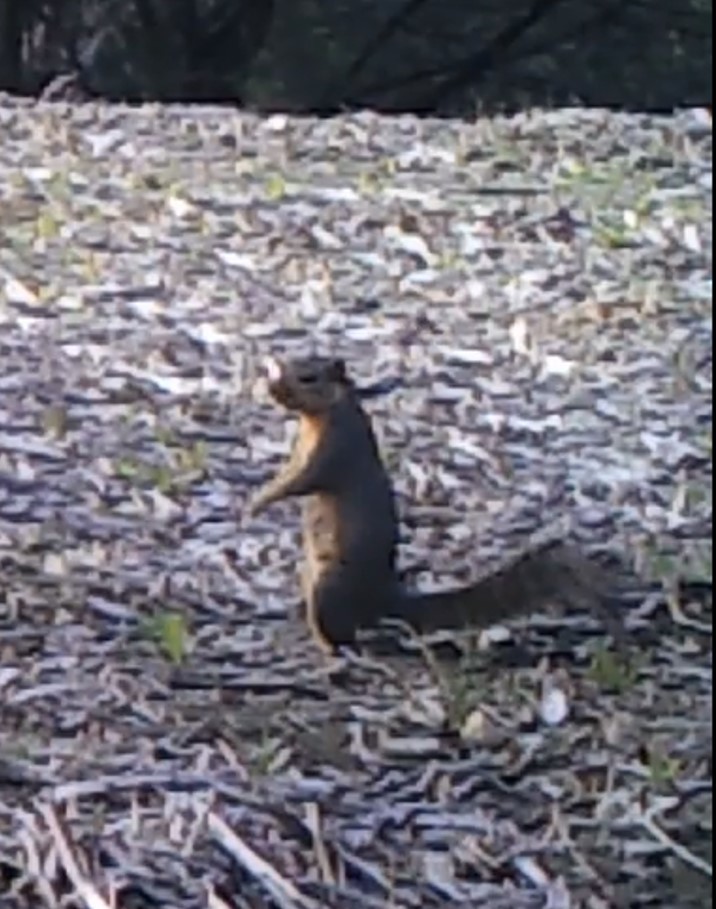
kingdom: Animalia
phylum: Chordata
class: Mammalia
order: Rodentia
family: Sciuridae
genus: Sciurus
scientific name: Sciurus niger
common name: Fox squirrel
